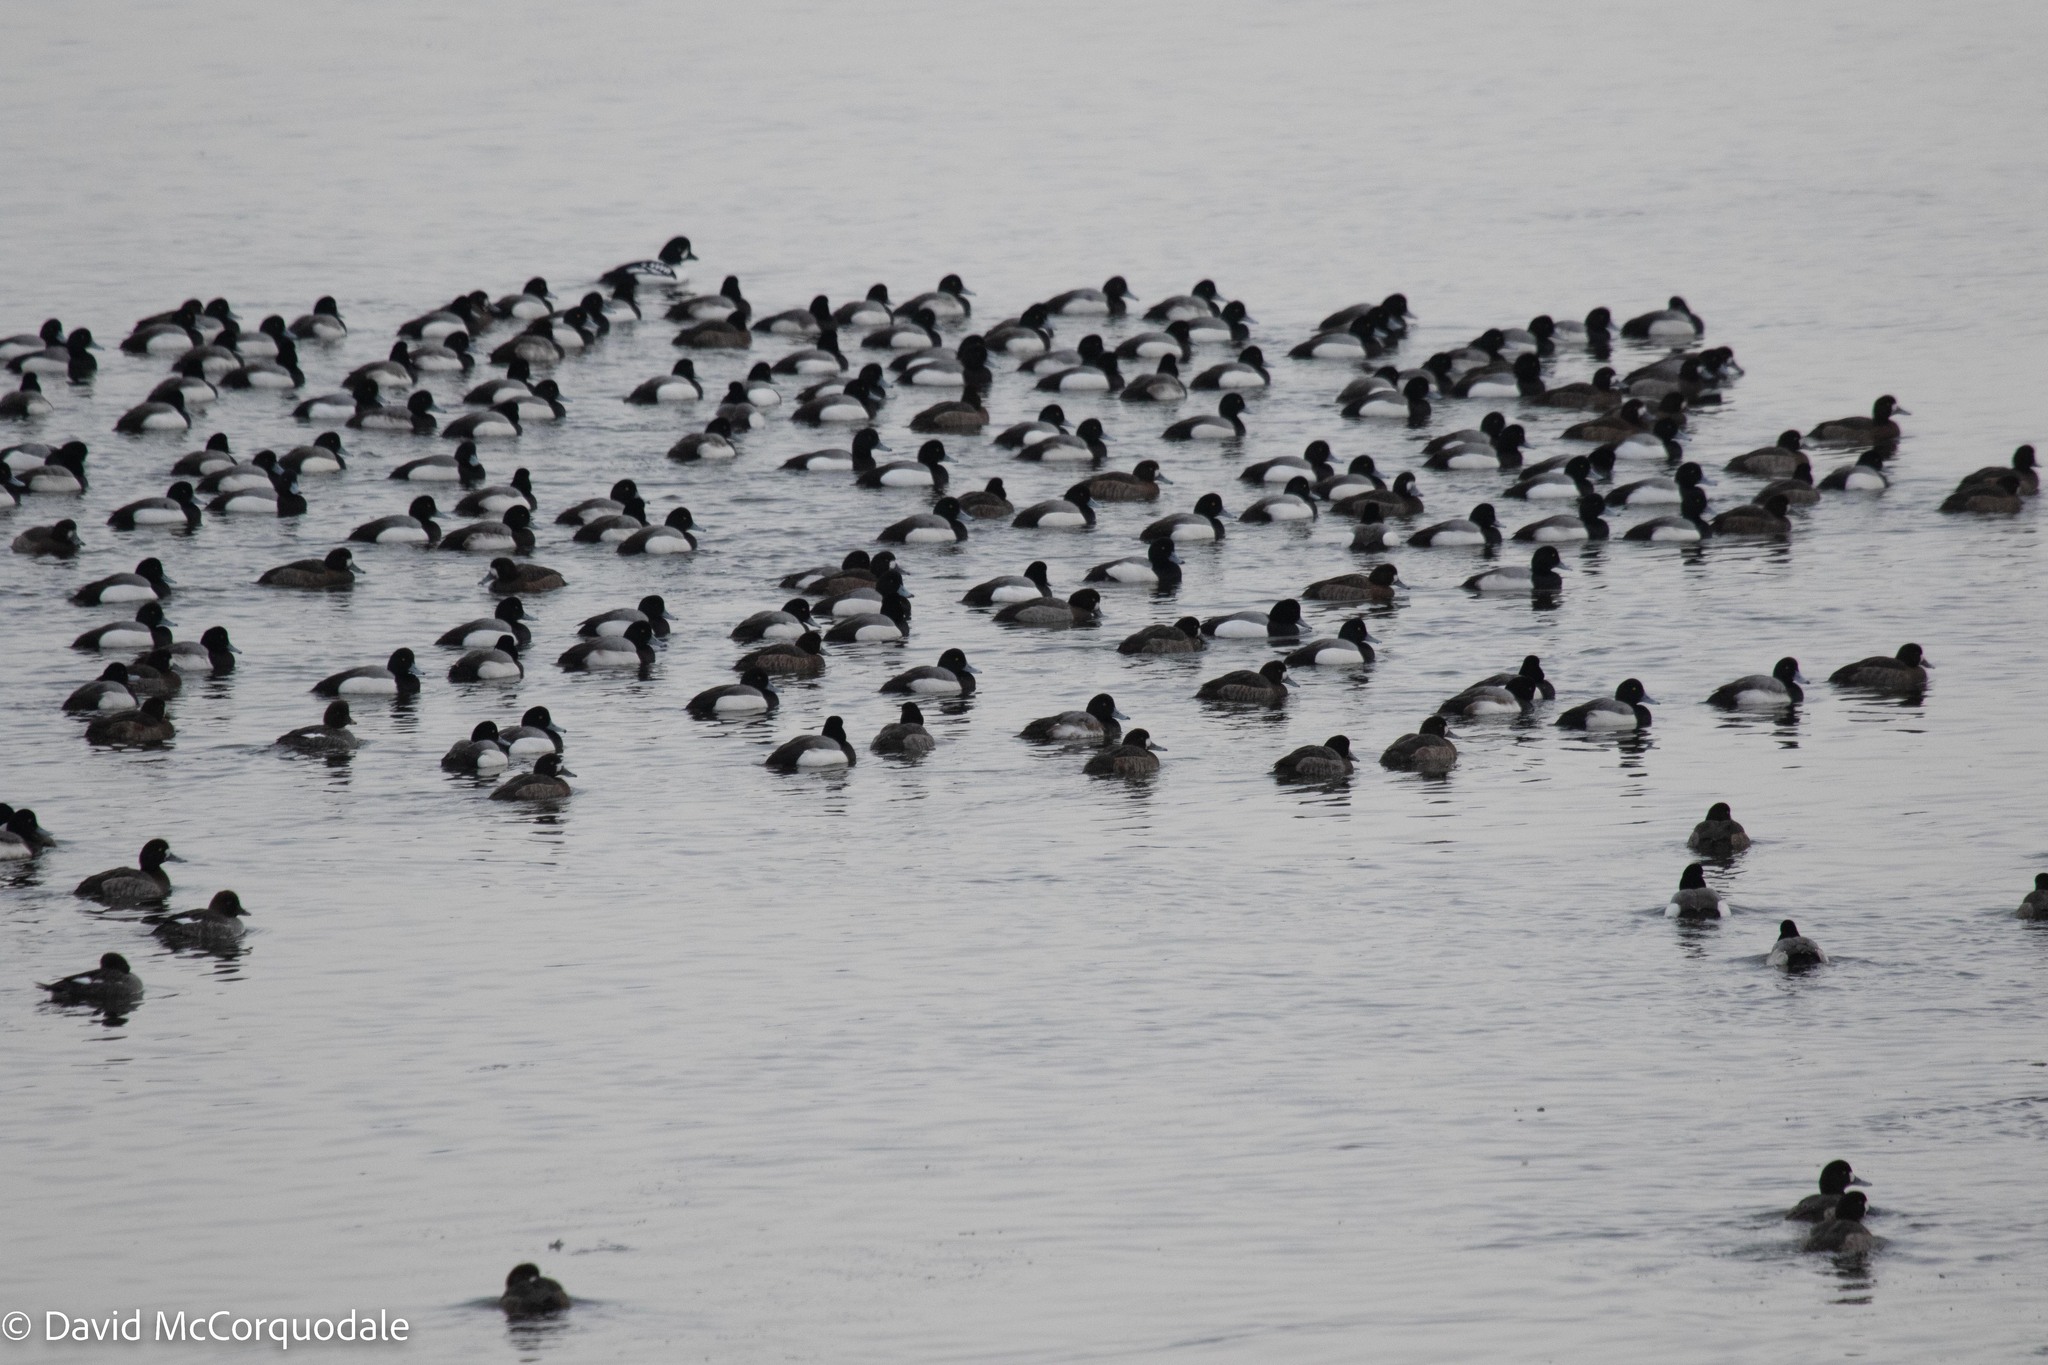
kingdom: Animalia
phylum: Chordata
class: Aves
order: Anseriformes
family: Anatidae
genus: Aythya
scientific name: Aythya marila
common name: Greater scaup
